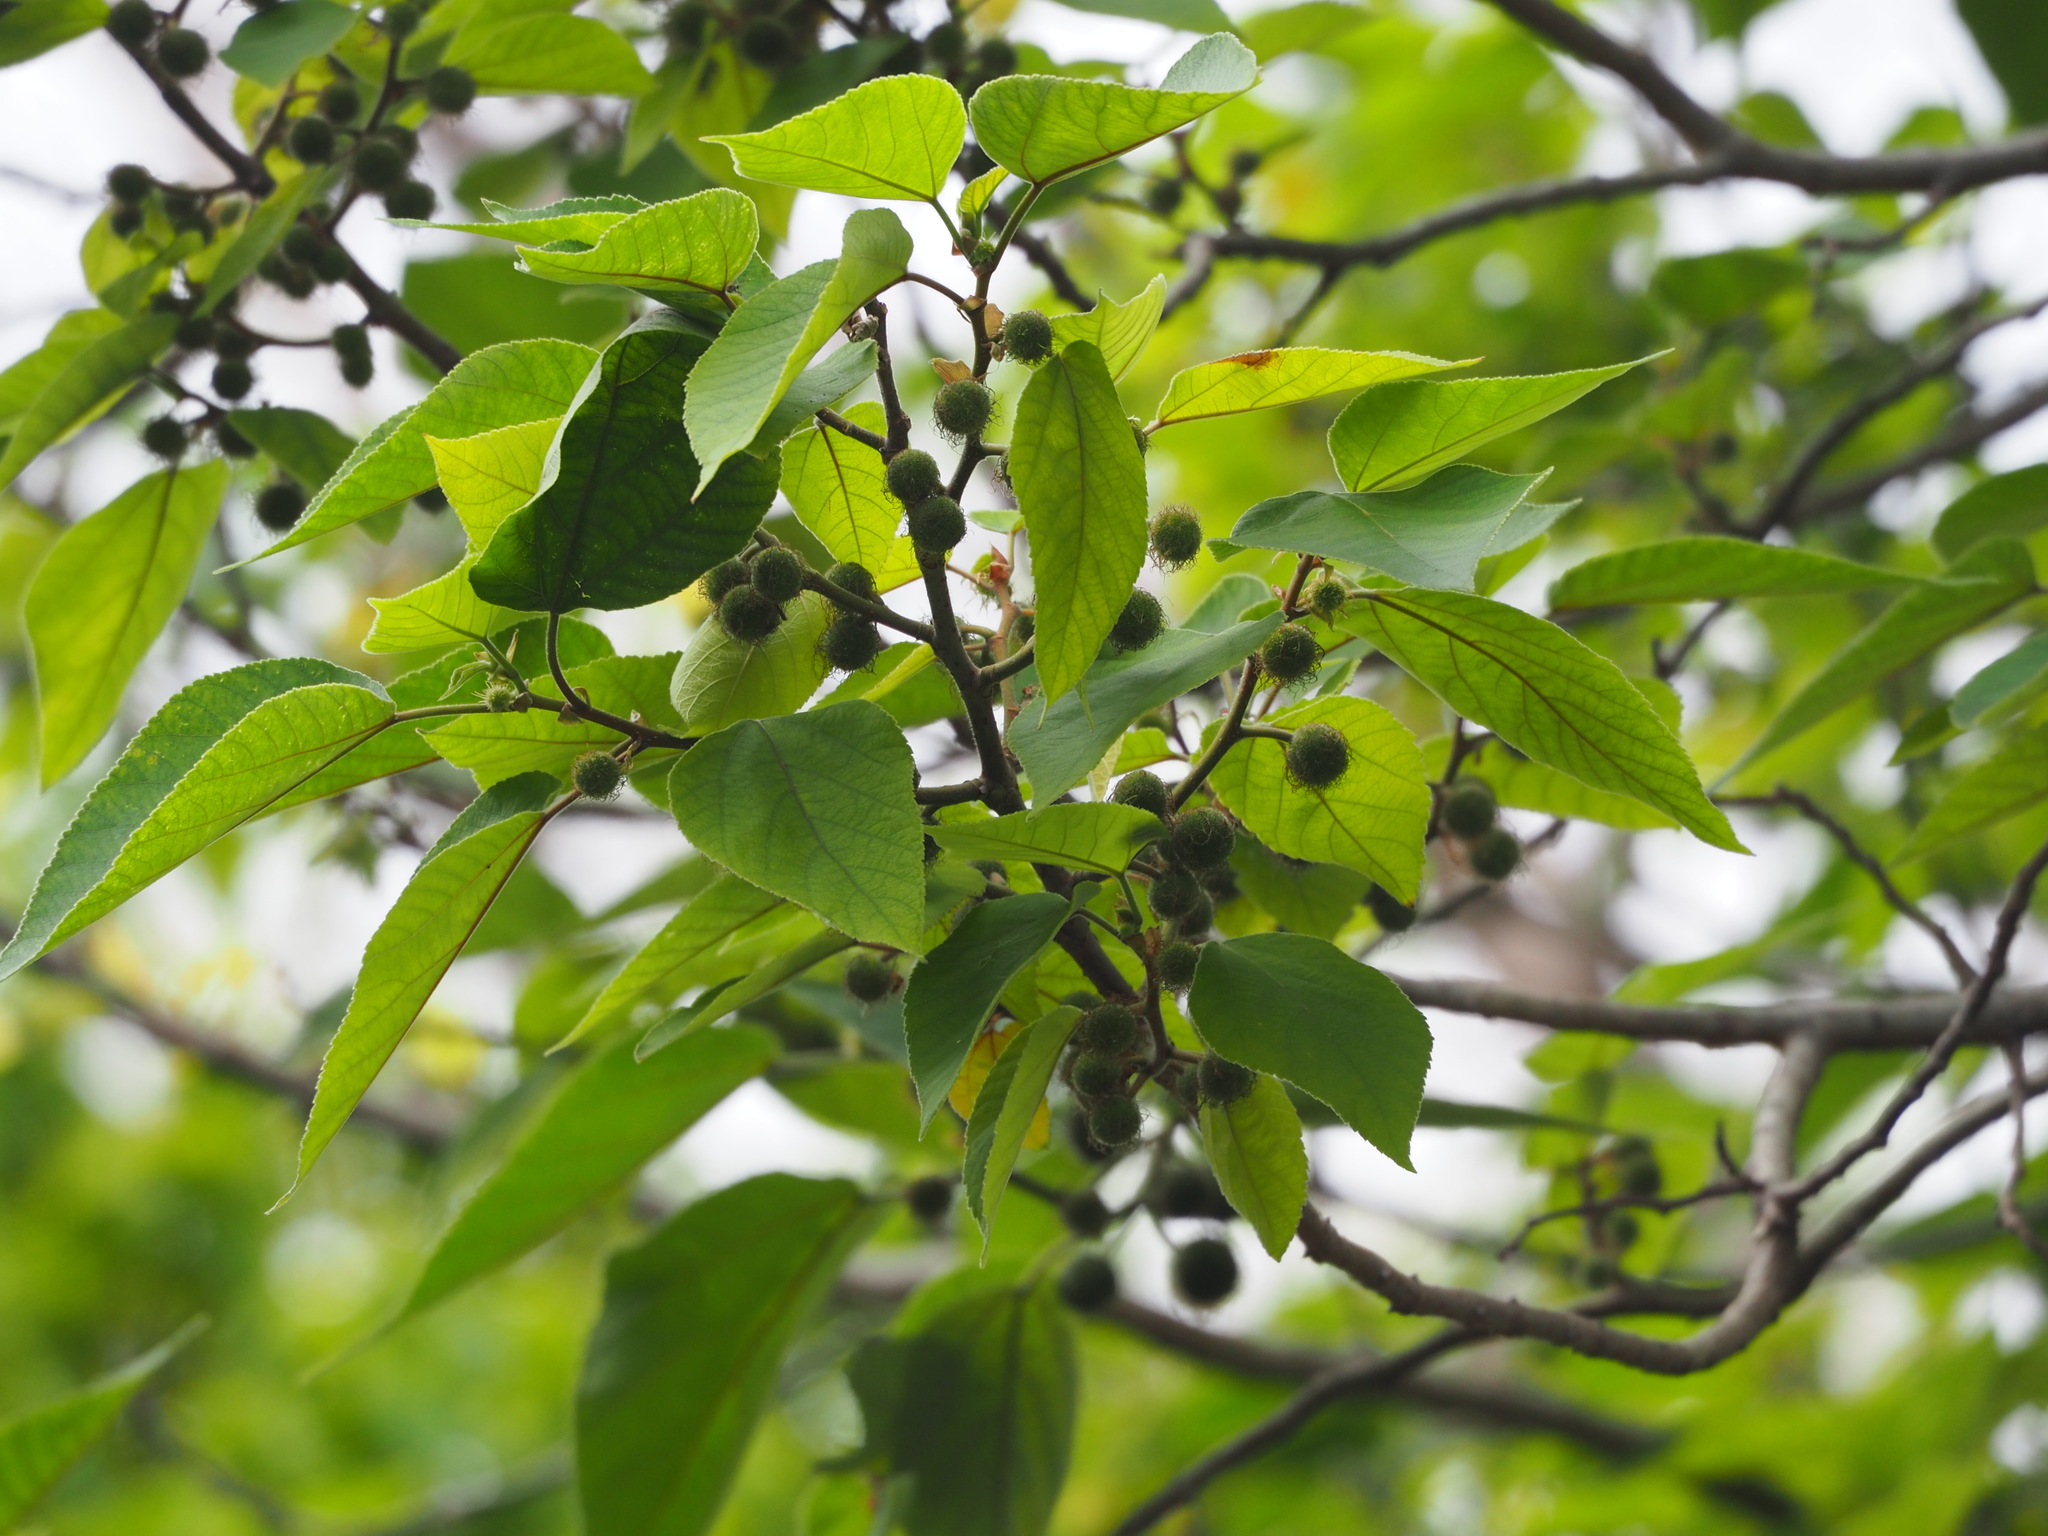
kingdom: Plantae
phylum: Tracheophyta
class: Magnoliopsida
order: Rosales
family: Moraceae
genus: Broussonetia
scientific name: Broussonetia papyrifera
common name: Paper mulberry
